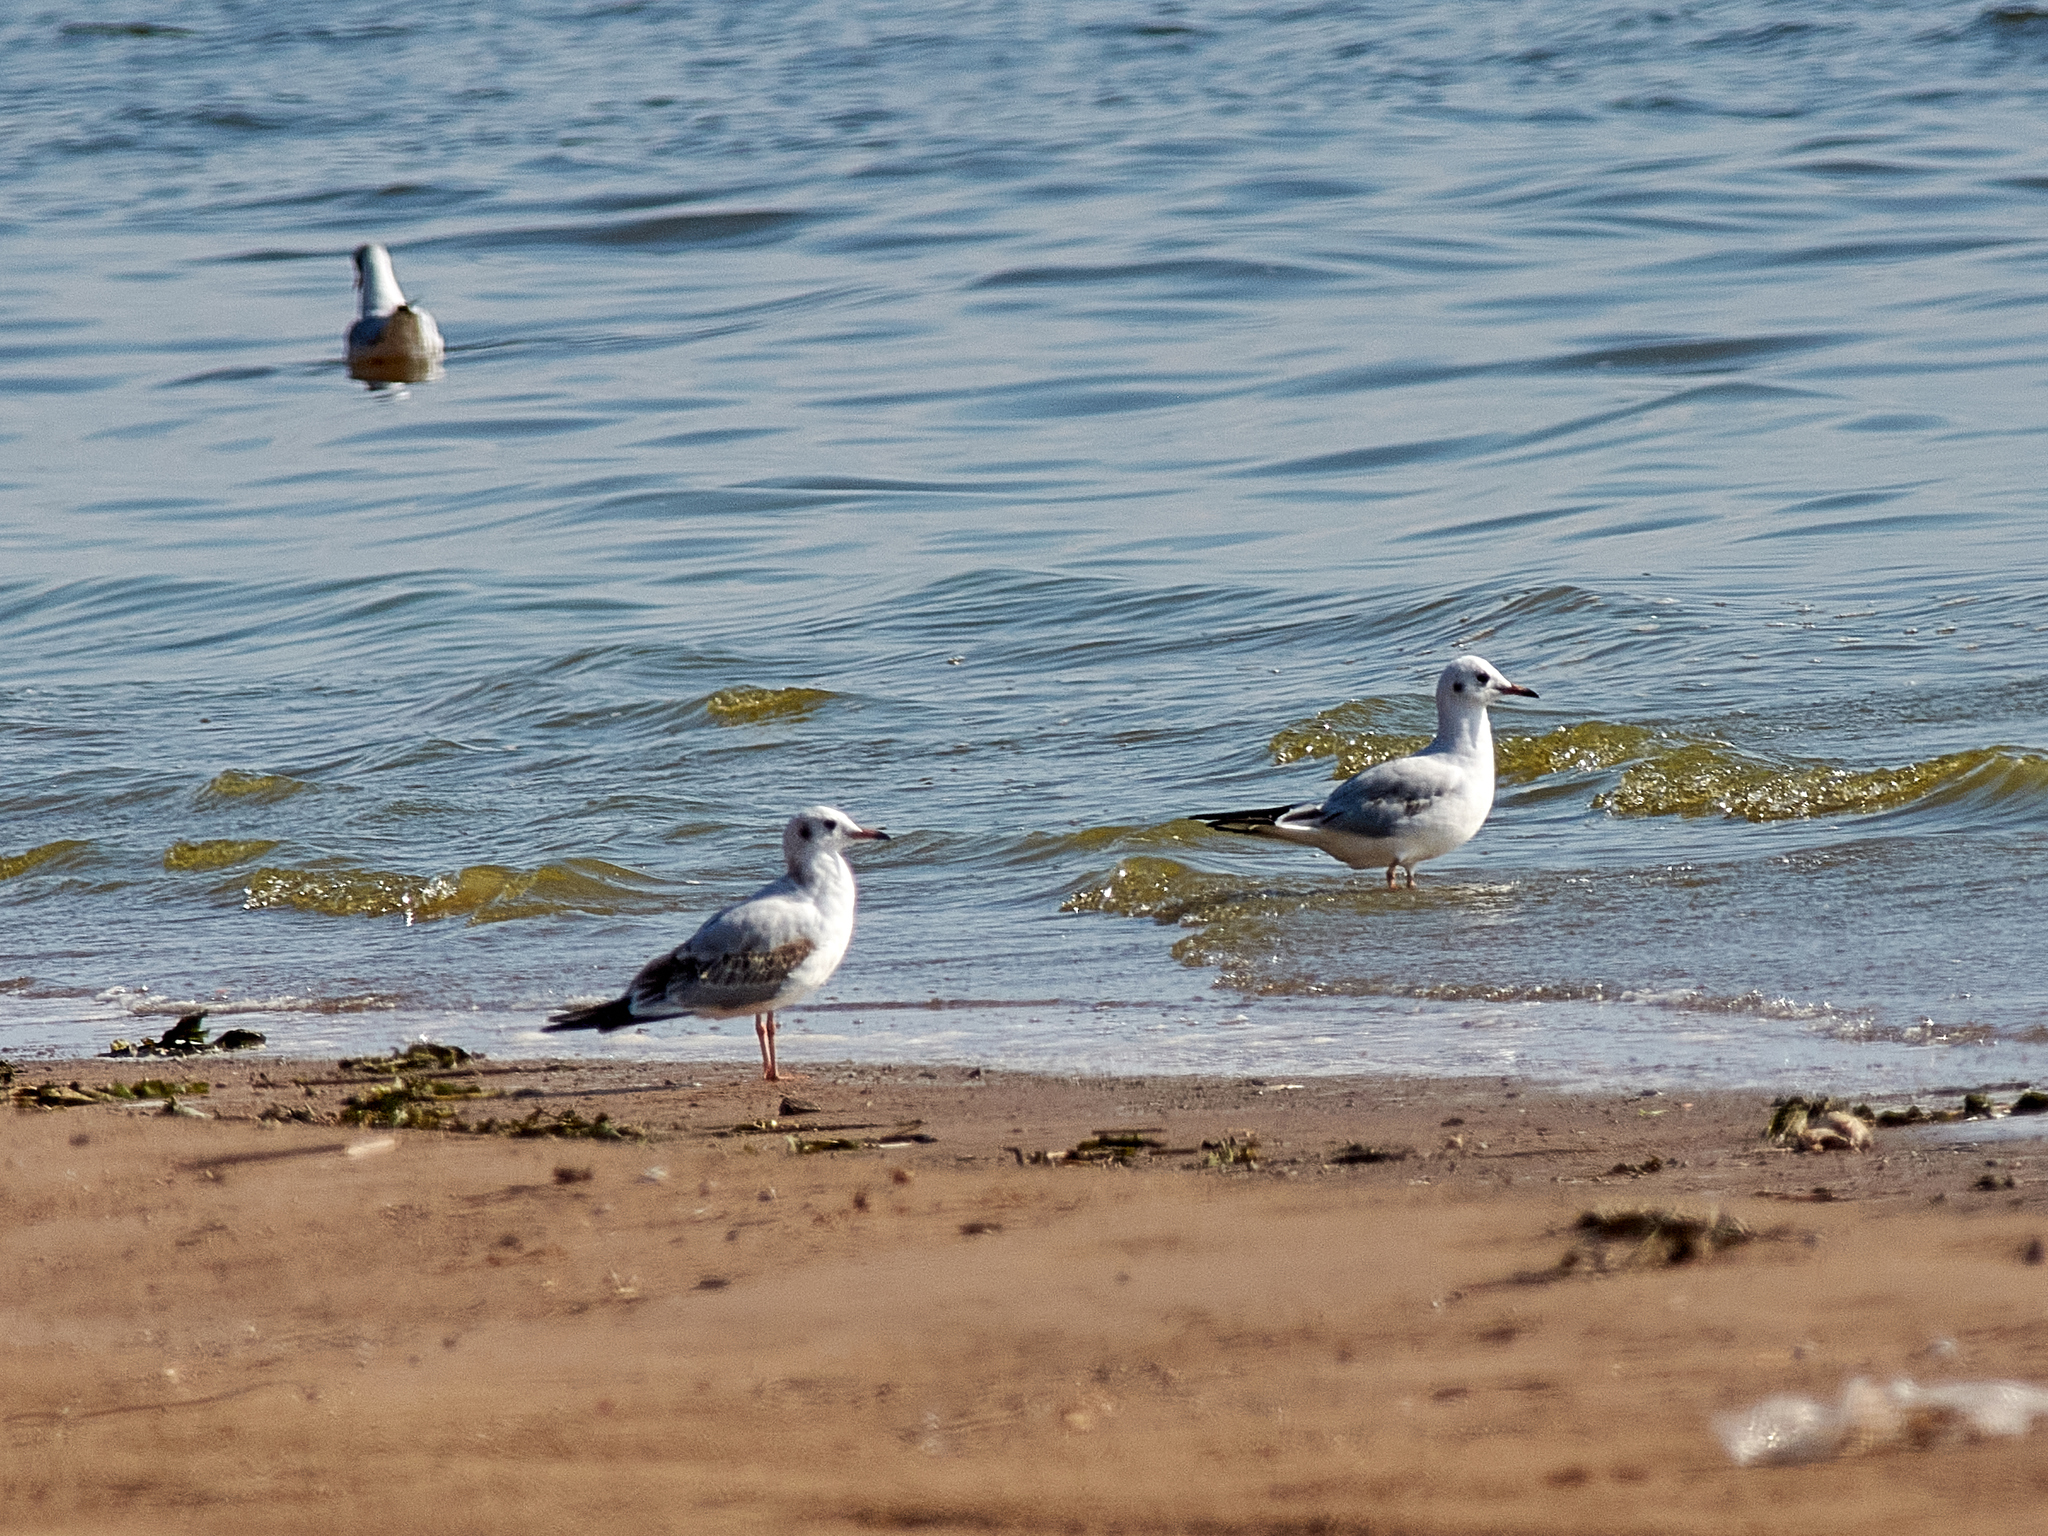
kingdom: Animalia
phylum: Chordata
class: Aves
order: Charadriiformes
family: Laridae
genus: Chroicocephalus
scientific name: Chroicocephalus ridibundus
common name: Black-headed gull
